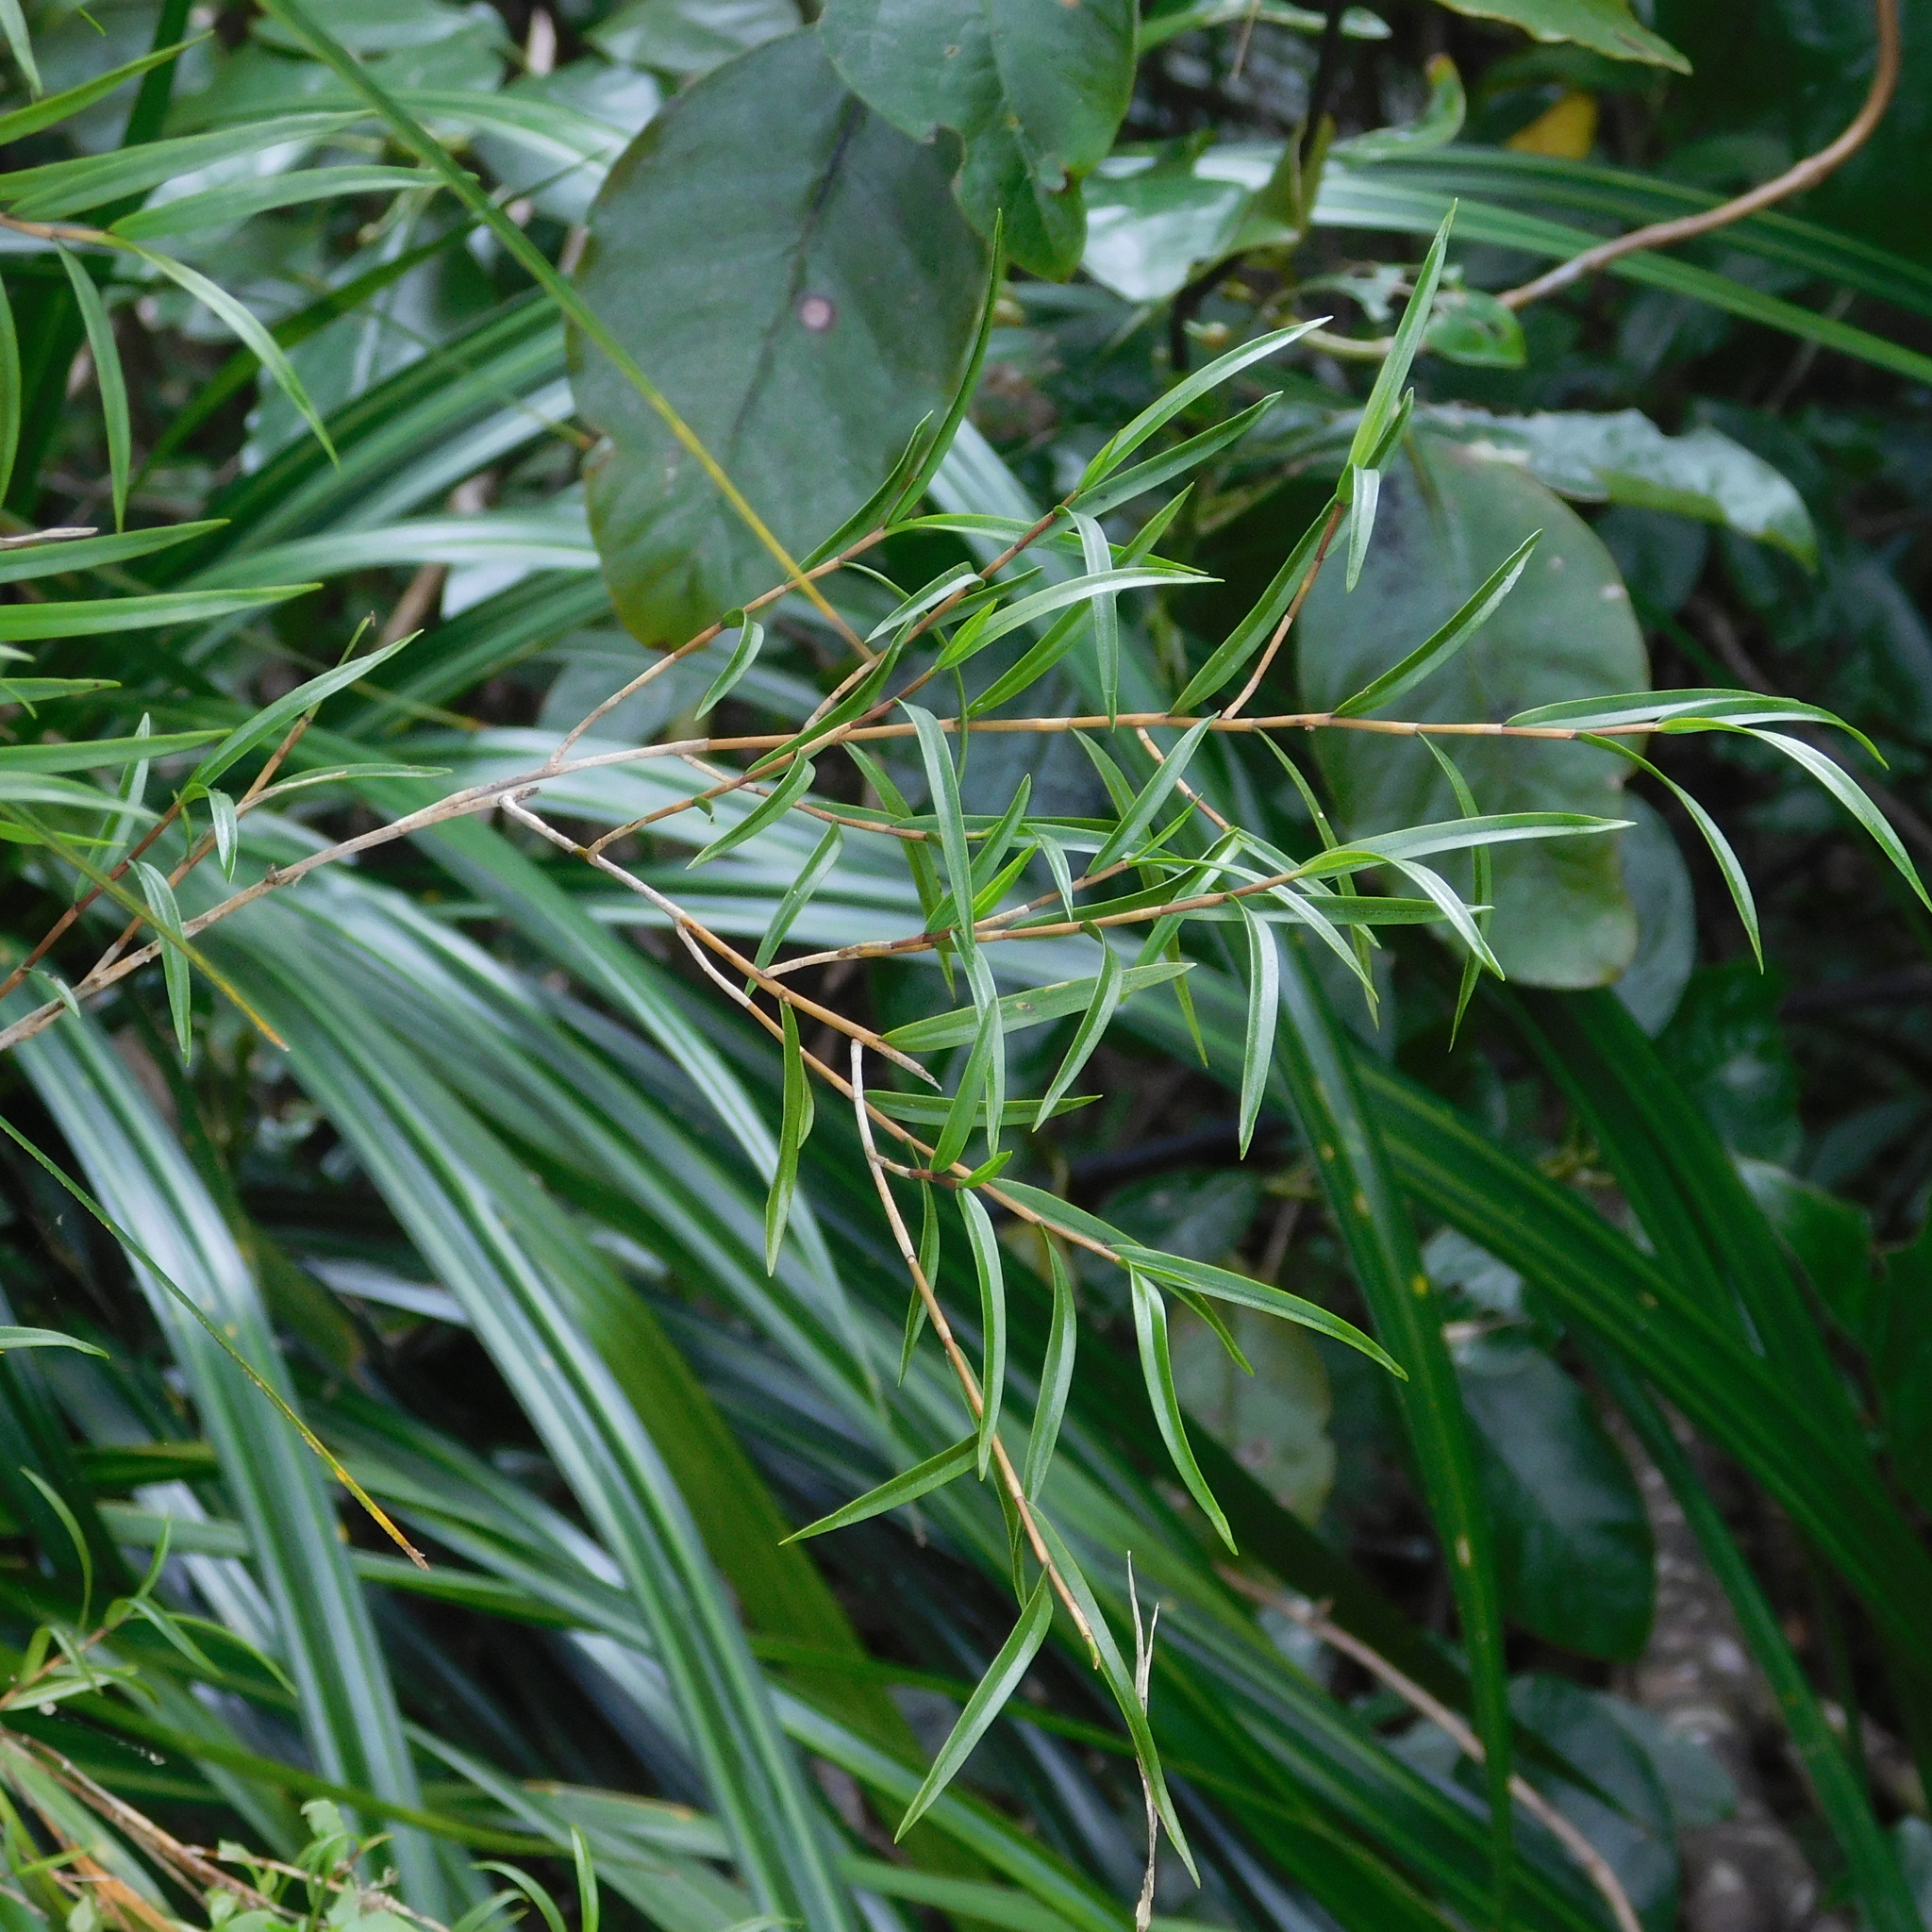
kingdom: Plantae
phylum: Tracheophyta
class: Liliopsida
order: Asparagales
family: Orchidaceae
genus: Dendrobium
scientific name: Dendrobium cunninghamii
